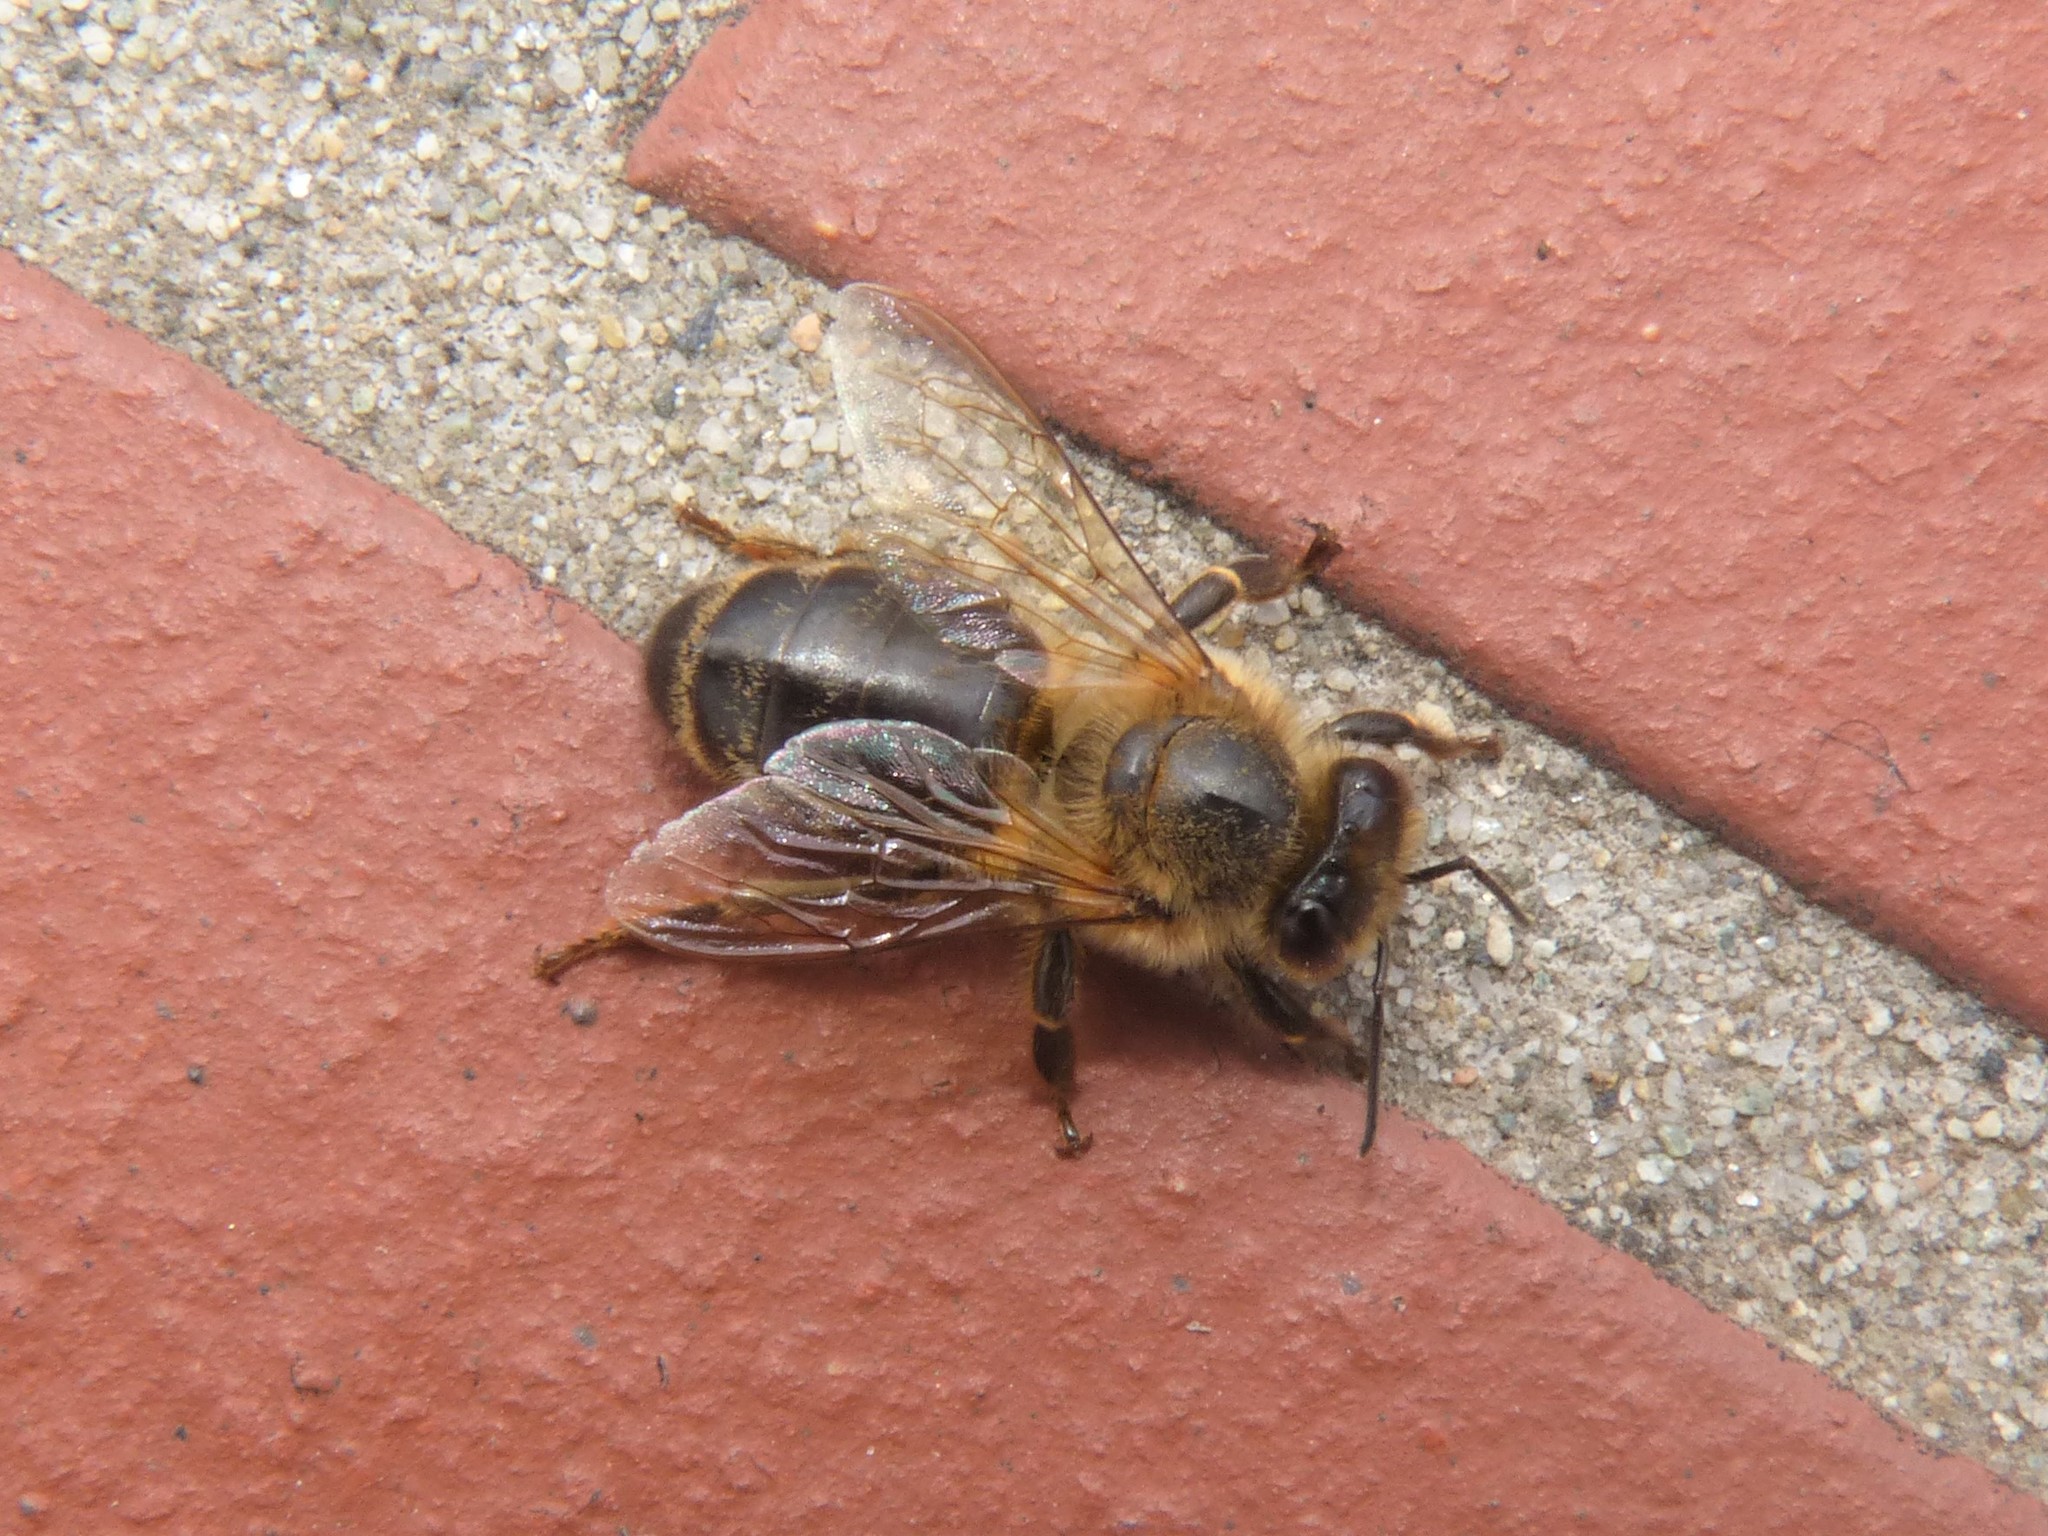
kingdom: Animalia
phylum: Arthropoda
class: Insecta
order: Hymenoptera
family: Apidae
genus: Apis
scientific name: Apis mellifera
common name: Honey bee
